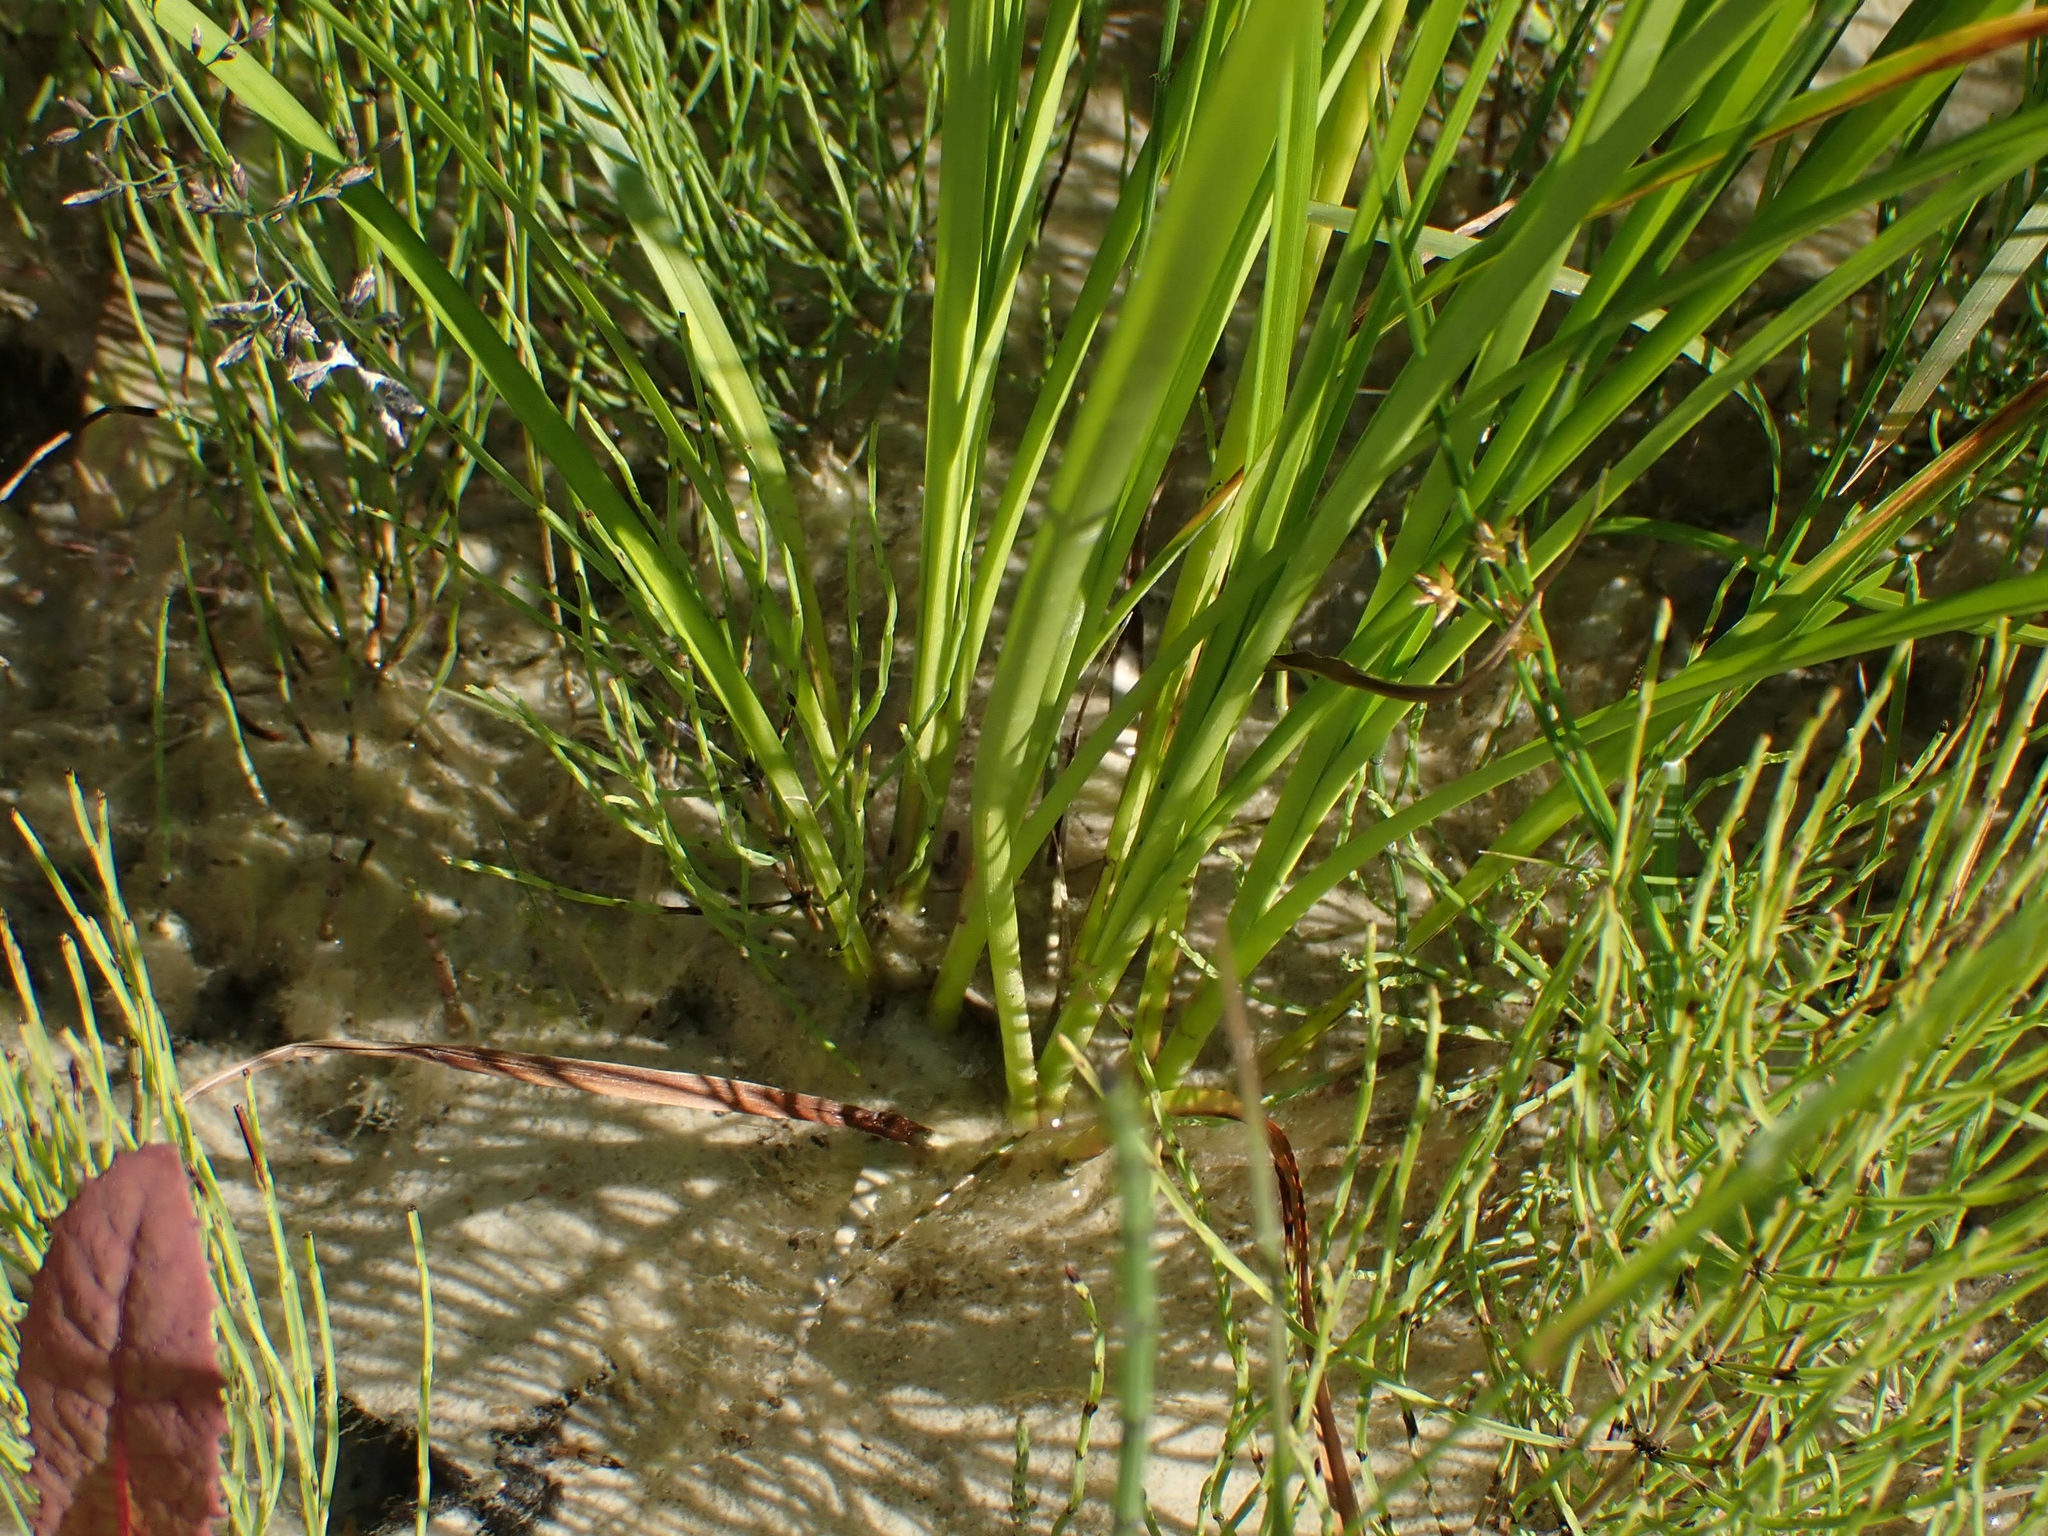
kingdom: Plantae
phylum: Tracheophyta
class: Liliopsida
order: Poales
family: Cyperaceae
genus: Scirpus
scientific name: Scirpus microcarpus
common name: Panicled bulrush
